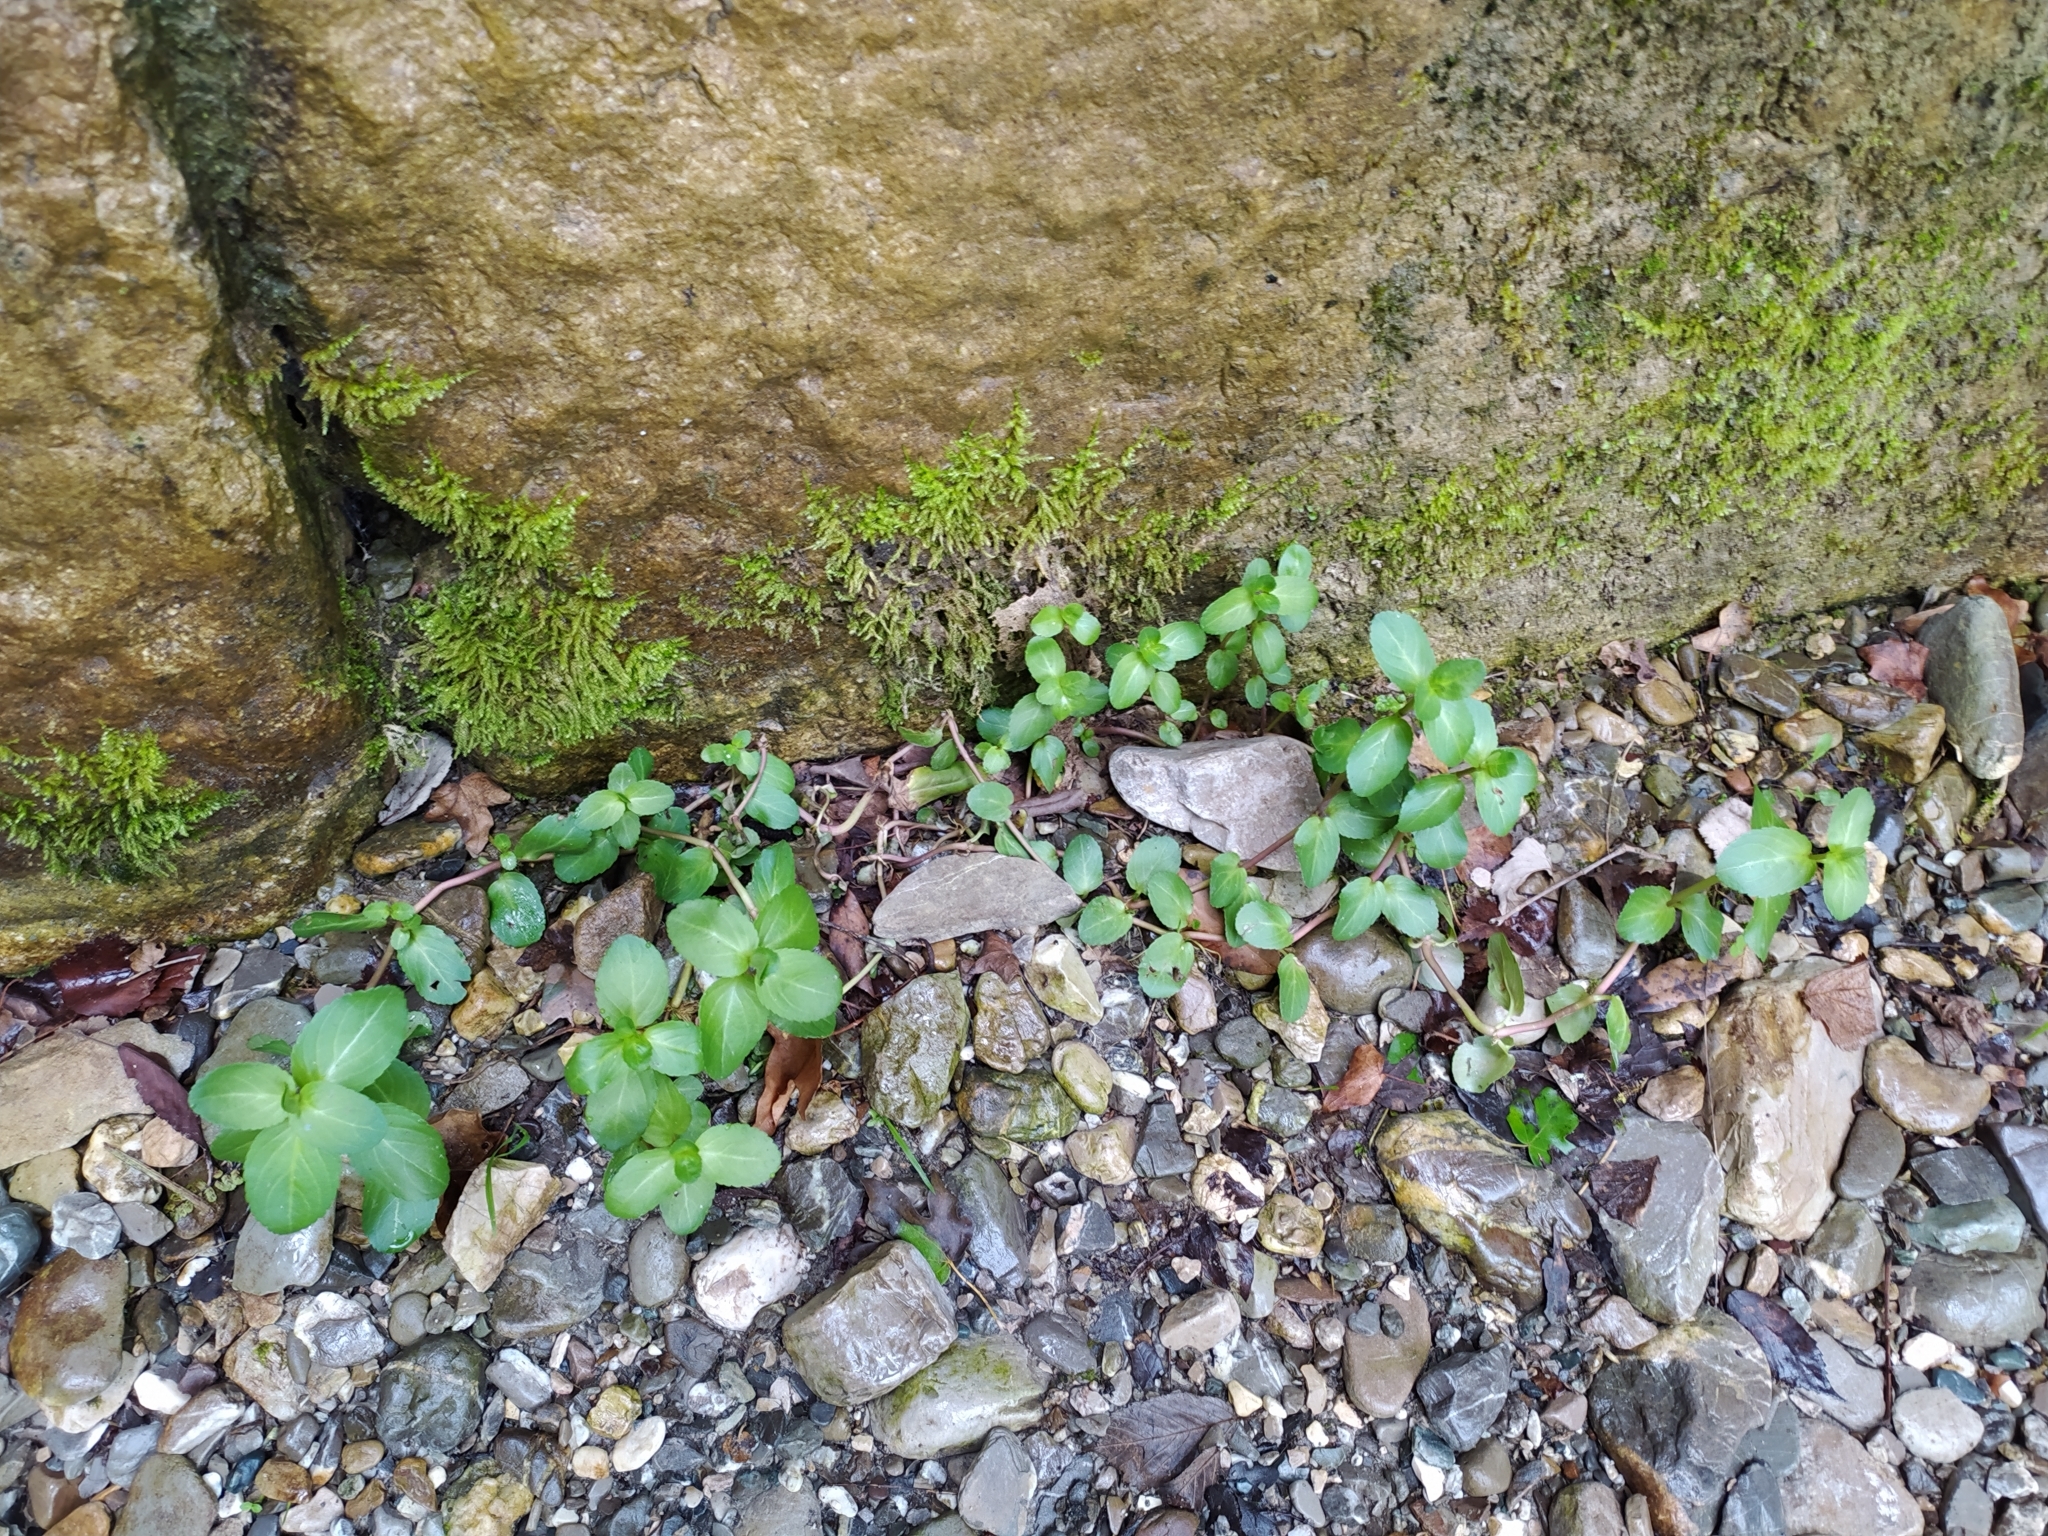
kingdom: Plantae
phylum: Tracheophyta
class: Magnoliopsida
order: Lamiales
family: Plantaginaceae
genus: Veronica
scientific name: Veronica beccabunga
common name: Brooklime
